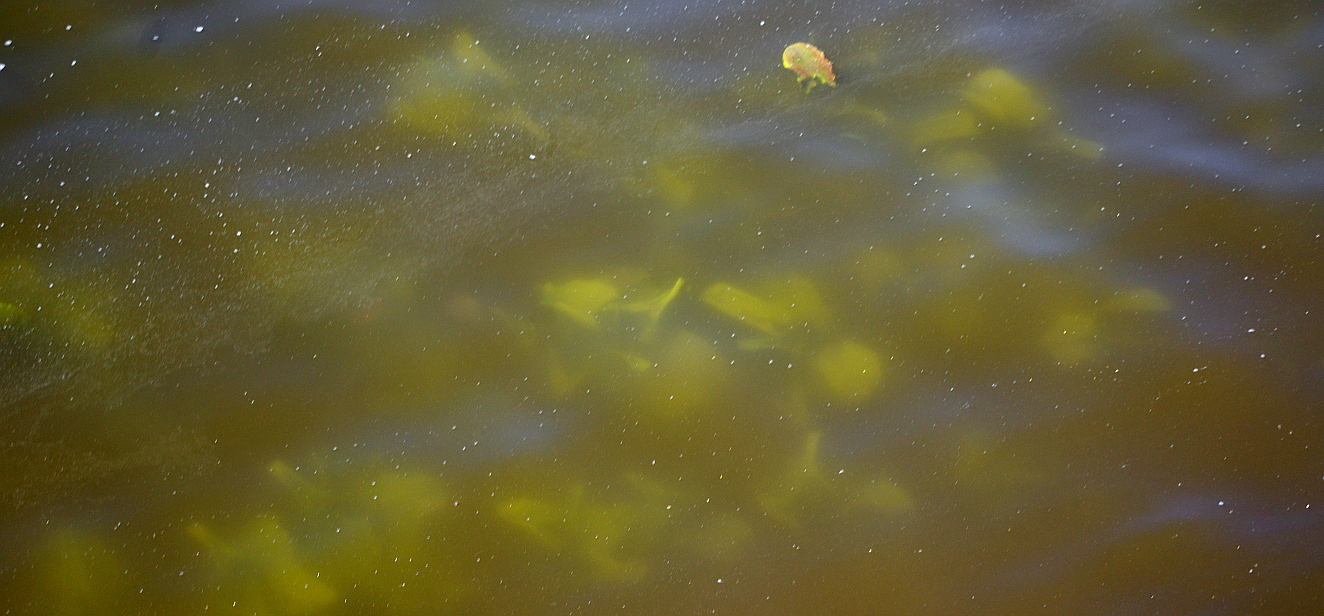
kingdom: Plantae
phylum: Tracheophyta
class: Magnoliopsida
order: Nymphaeales
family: Nymphaeaceae
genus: Nuphar
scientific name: Nuphar lutea
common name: Yellow water-lily
